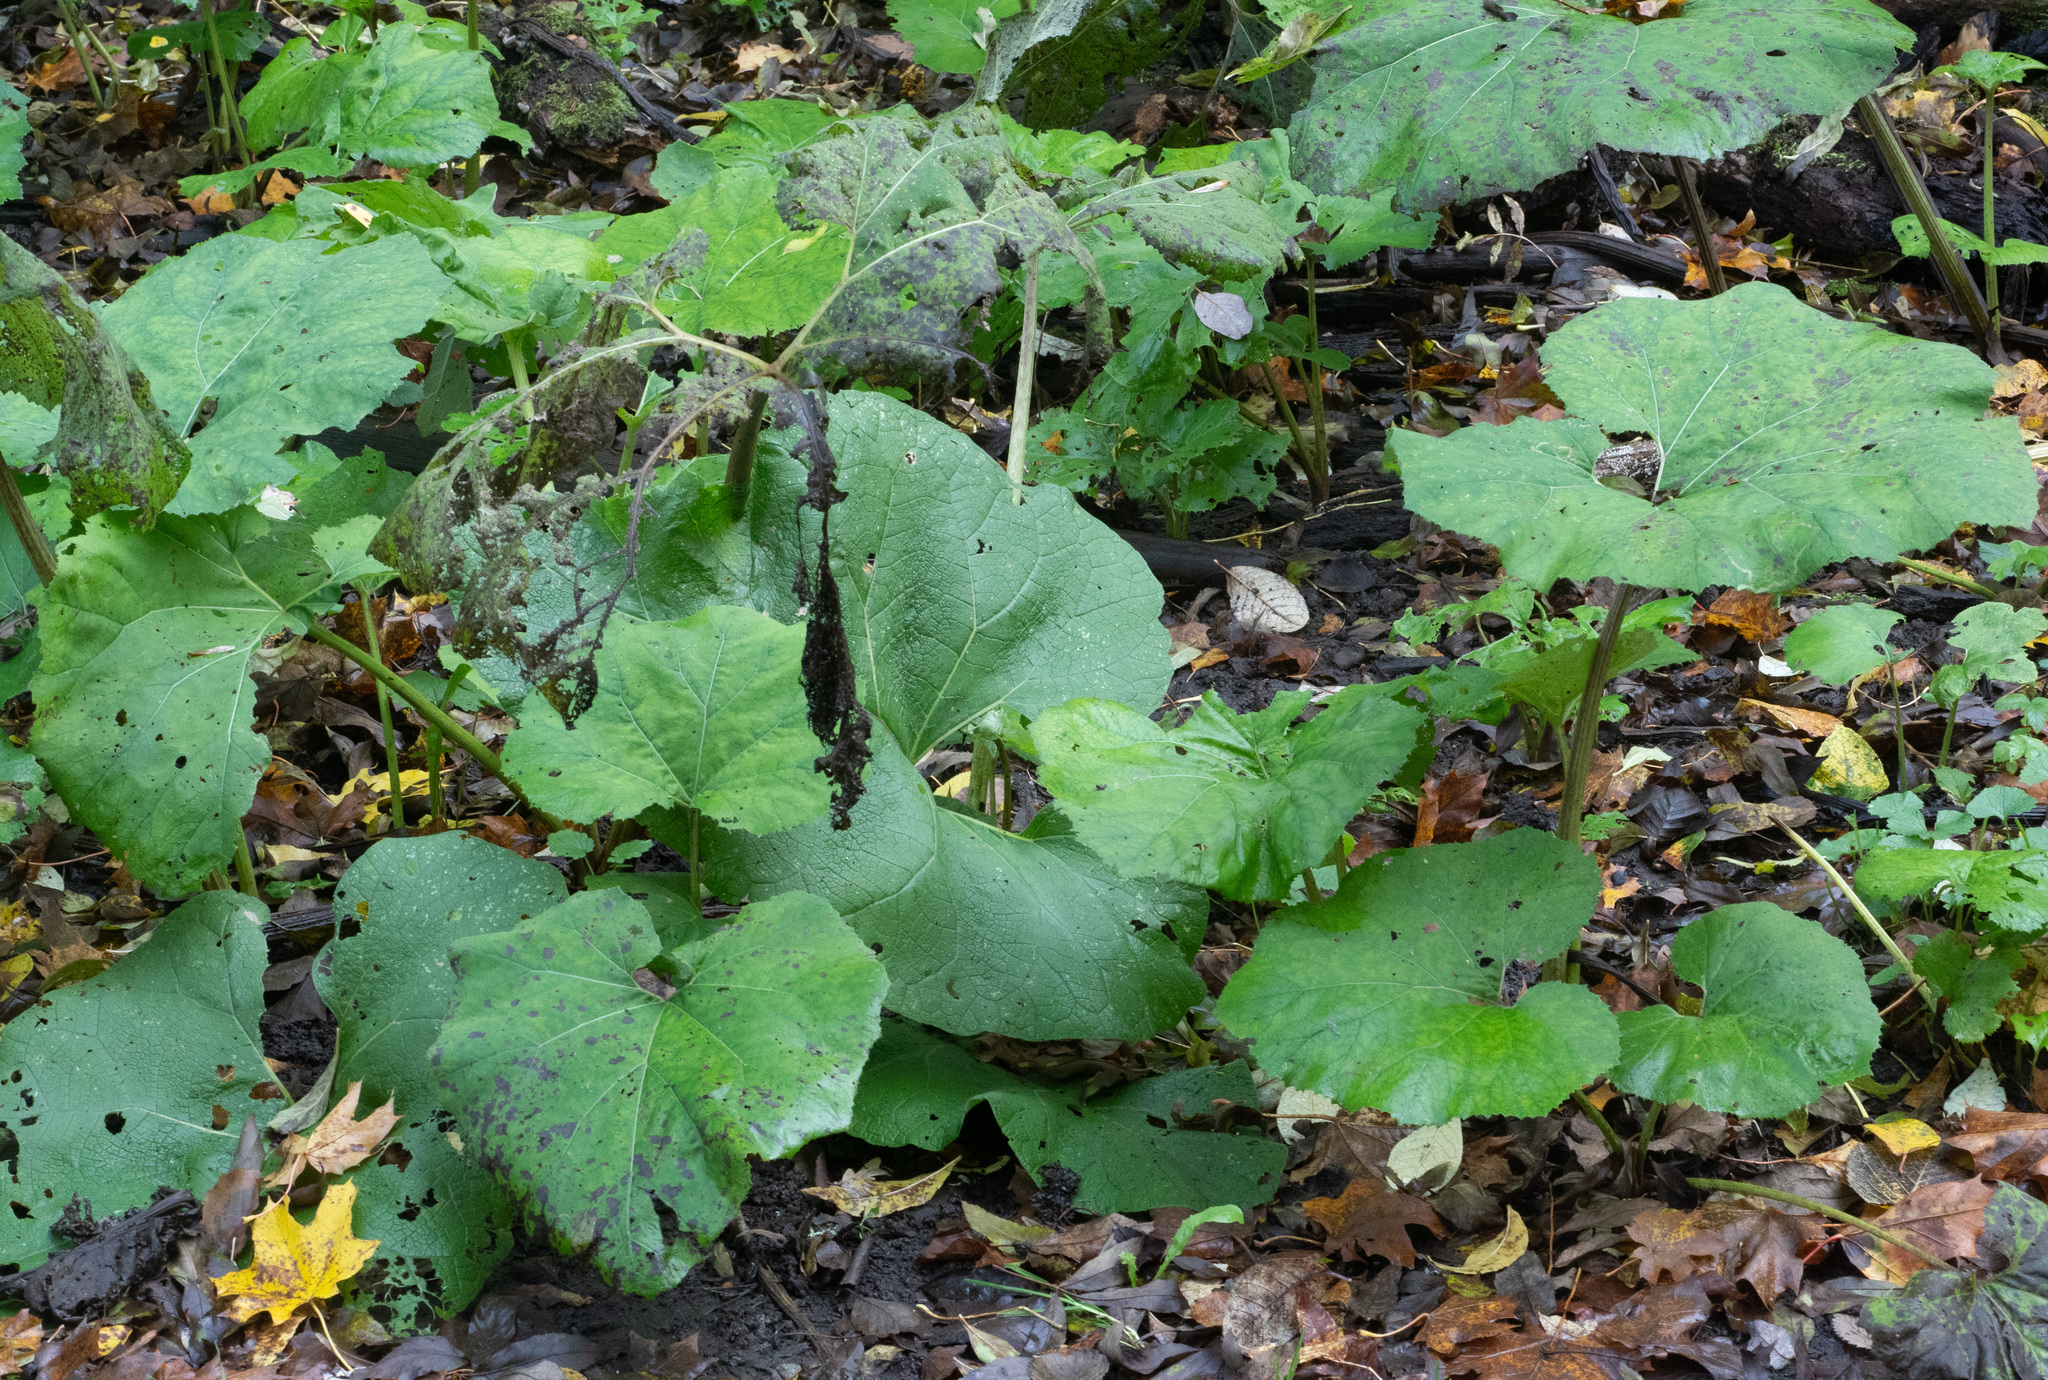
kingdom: Plantae
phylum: Tracheophyta
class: Magnoliopsida
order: Asterales
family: Asteraceae
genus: Tussilago
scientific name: Tussilago farfara
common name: Coltsfoot
